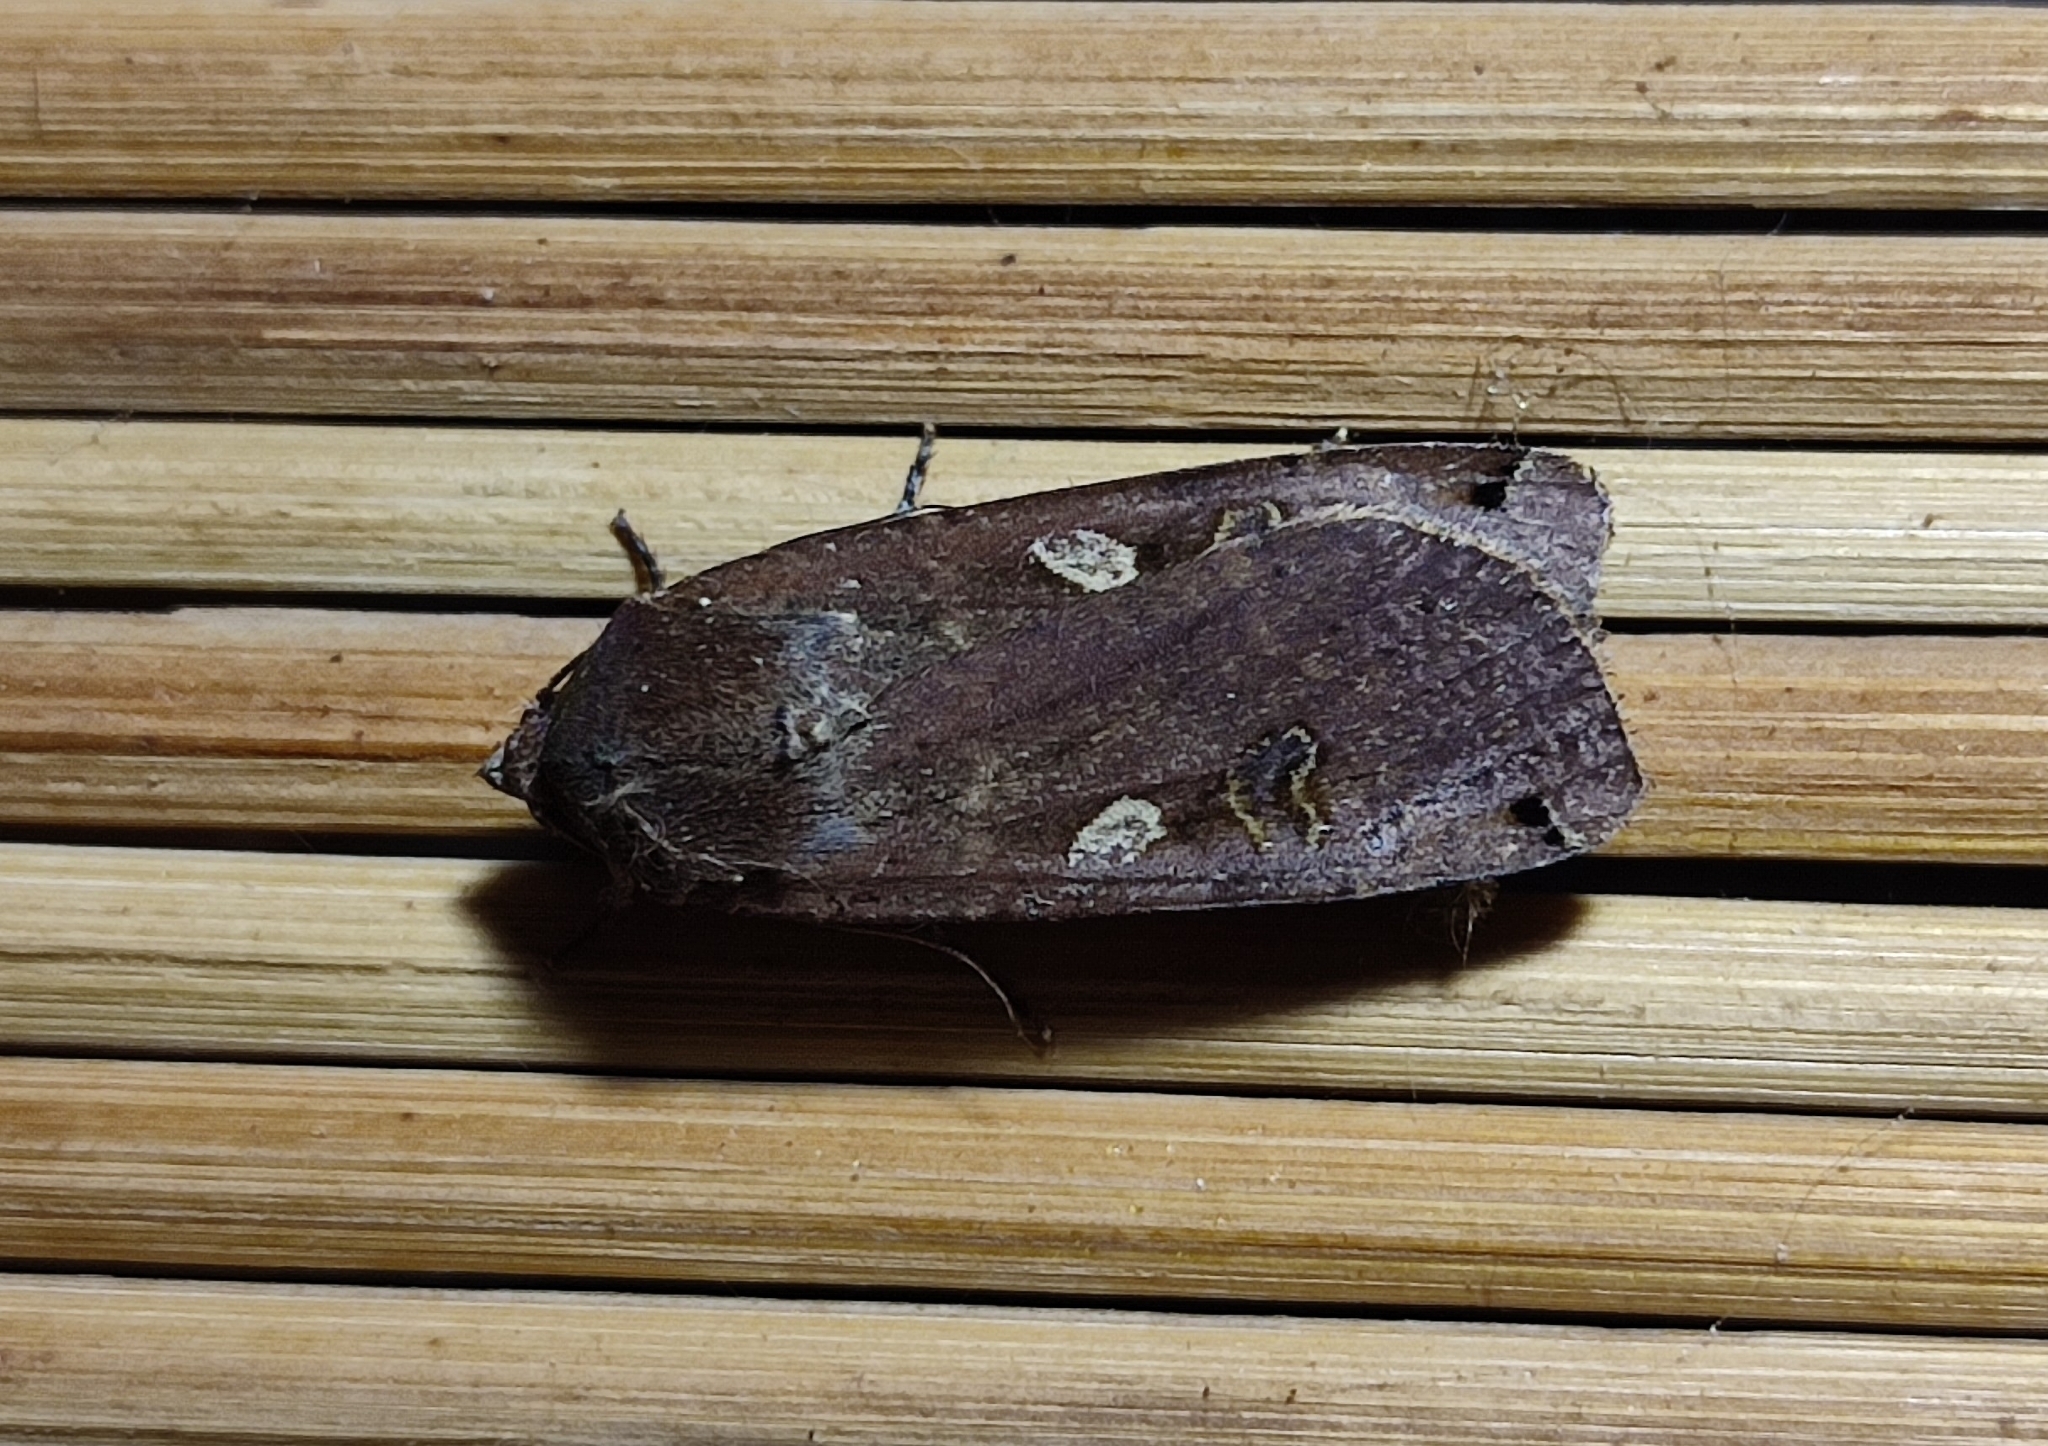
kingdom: Animalia
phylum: Arthropoda
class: Insecta
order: Lepidoptera
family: Noctuidae
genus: Noctua
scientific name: Noctua pronuba
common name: Large yellow underwing
